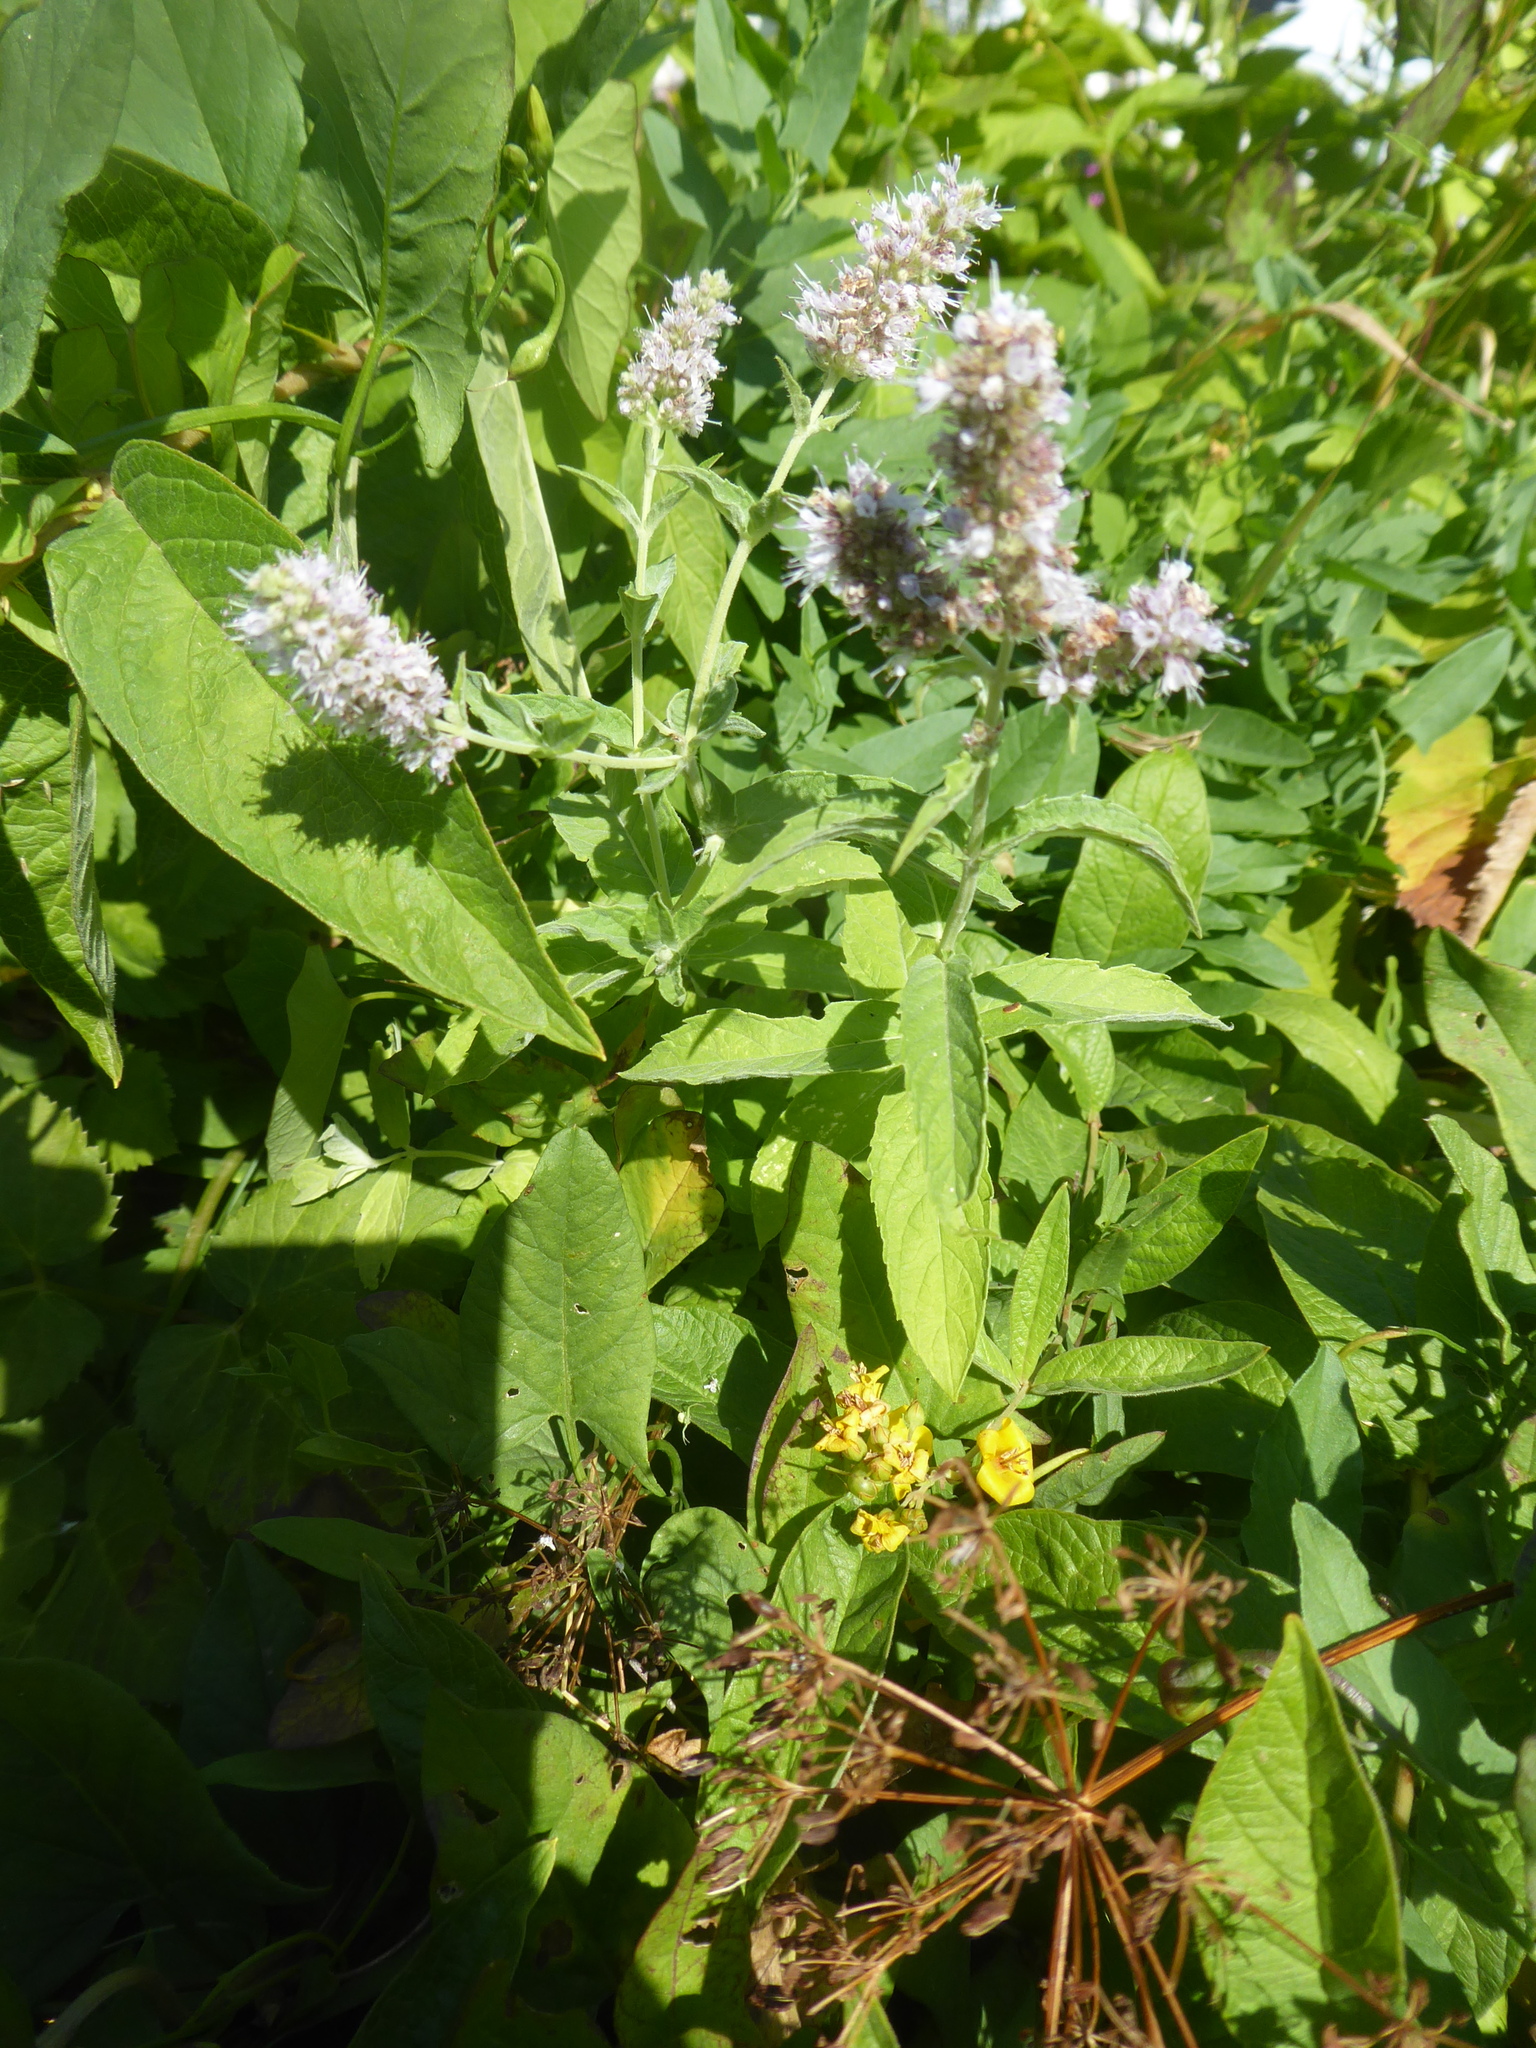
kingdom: Plantae
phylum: Tracheophyta
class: Magnoliopsida
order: Lamiales
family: Lamiaceae
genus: Mentha
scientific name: Mentha longifolia
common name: Horse mint
